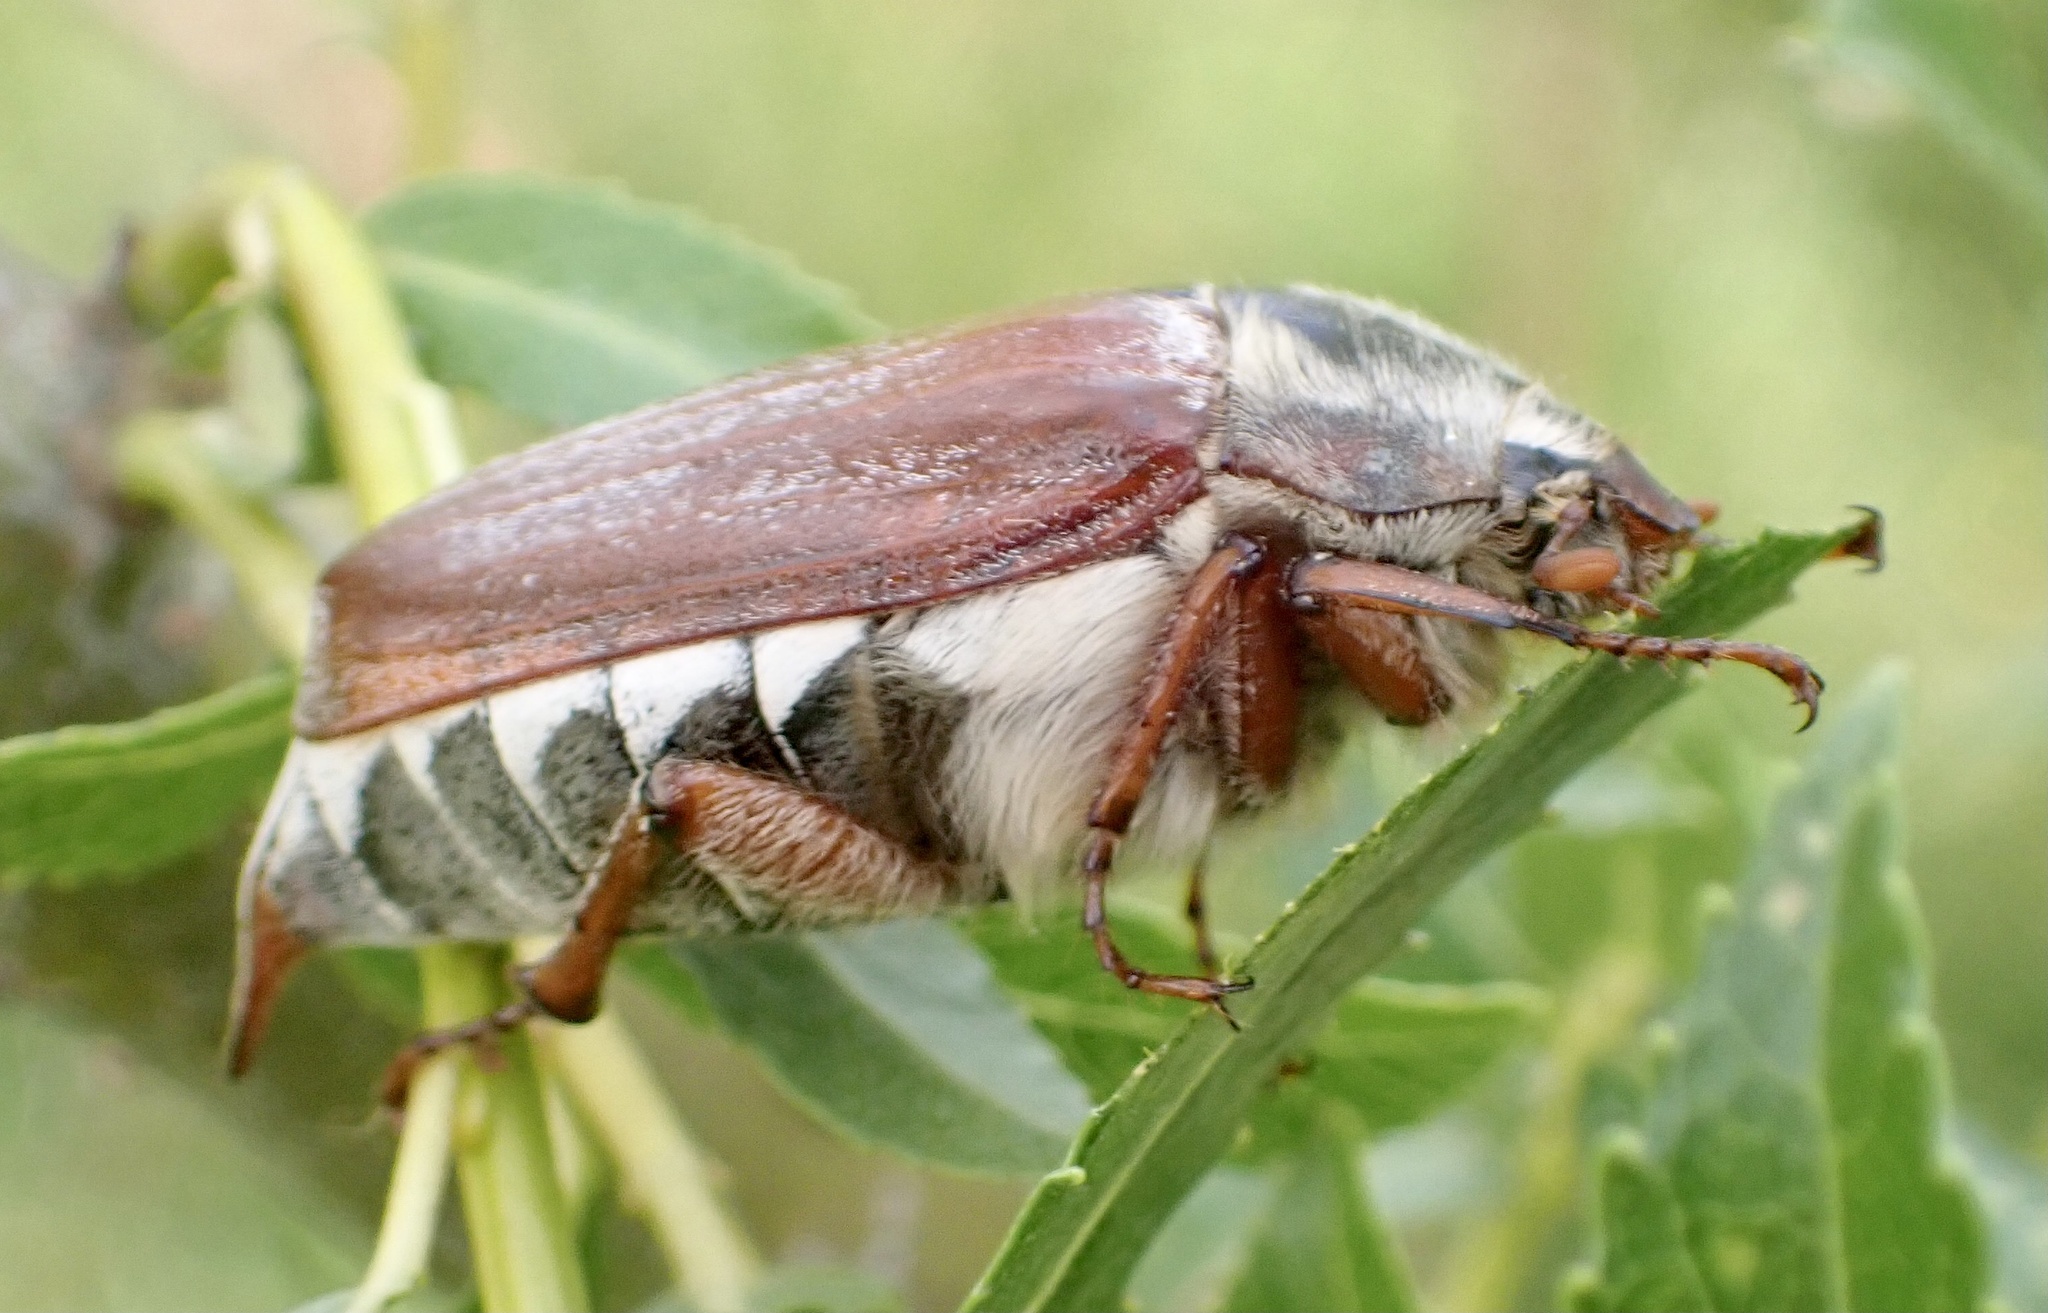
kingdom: Animalia
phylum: Arthropoda
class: Insecta
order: Coleoptera
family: Scarabaeidae
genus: Melolontha
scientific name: Melolontha melolontha
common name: Cockchafer maybeetle
